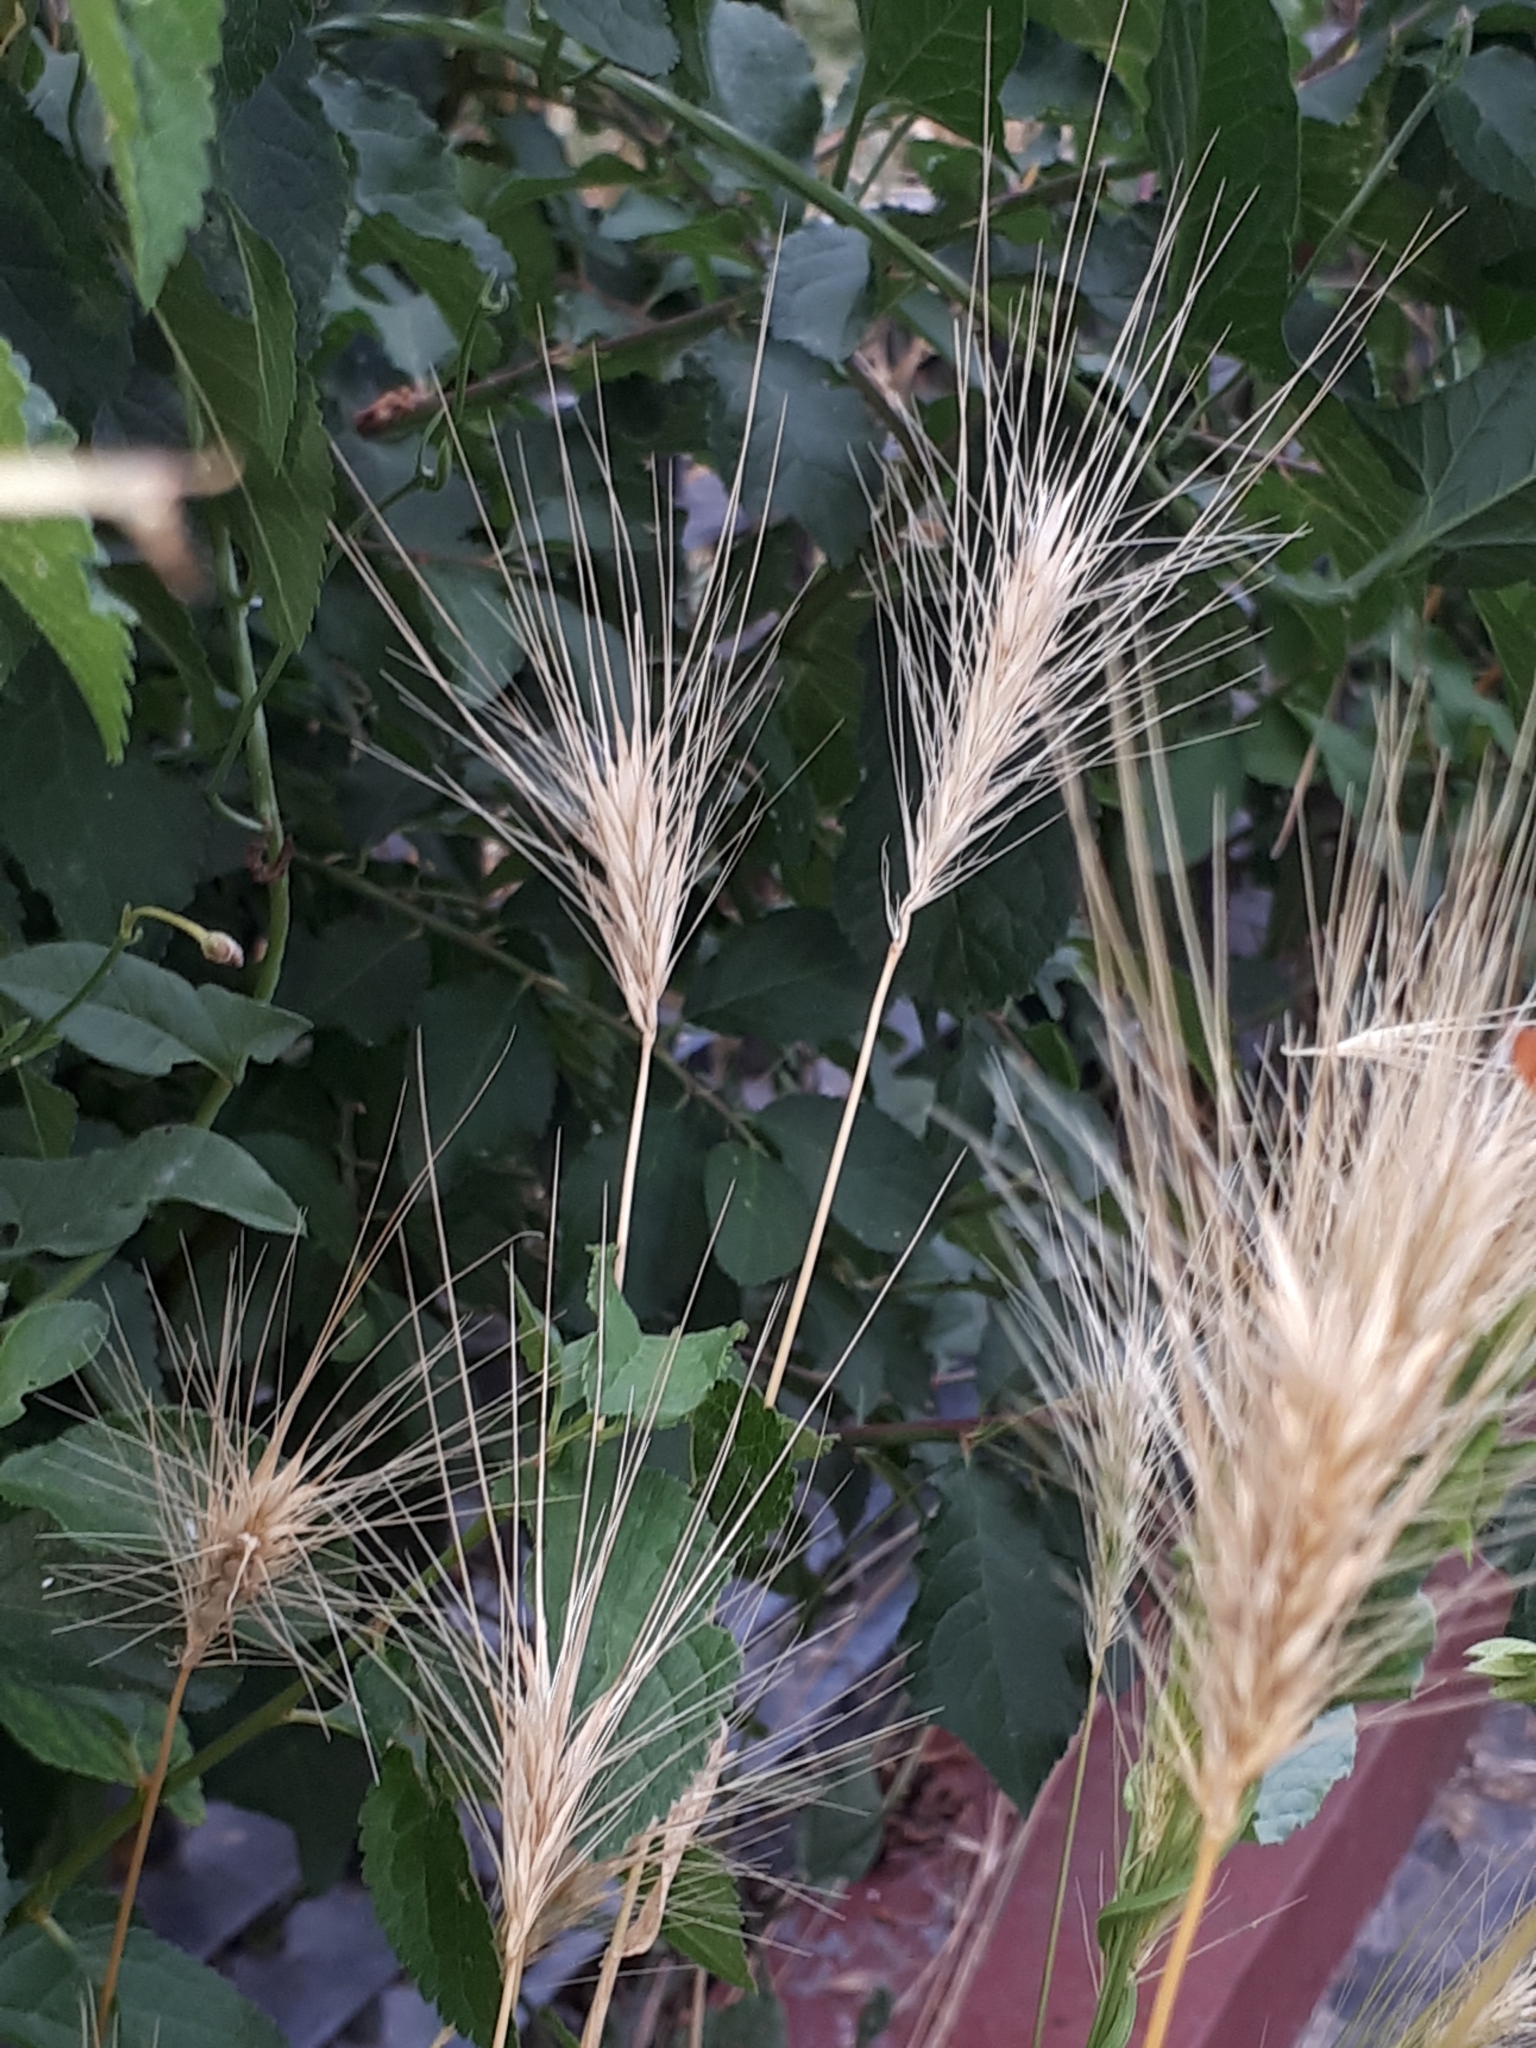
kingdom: Plantae
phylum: Tracheophyta
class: Liliopsida
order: Poales
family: Poaceae
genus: Hordeum
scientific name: Hordeum murinum
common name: Wall barley
